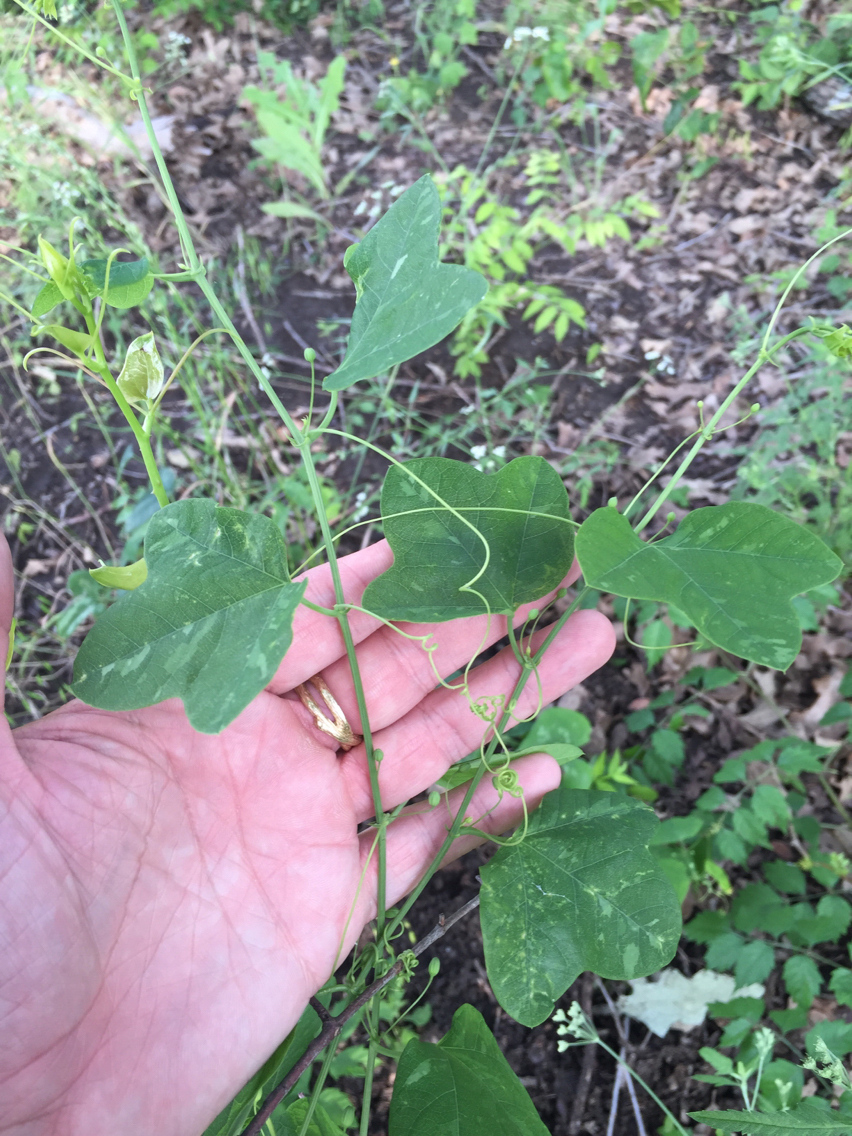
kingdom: Plantae
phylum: Tracheophyta
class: Magnoliopsida
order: Malpighiales
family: Passifloraceae
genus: Passiflora
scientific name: Passiflora lutea
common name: Yellow passionflower
